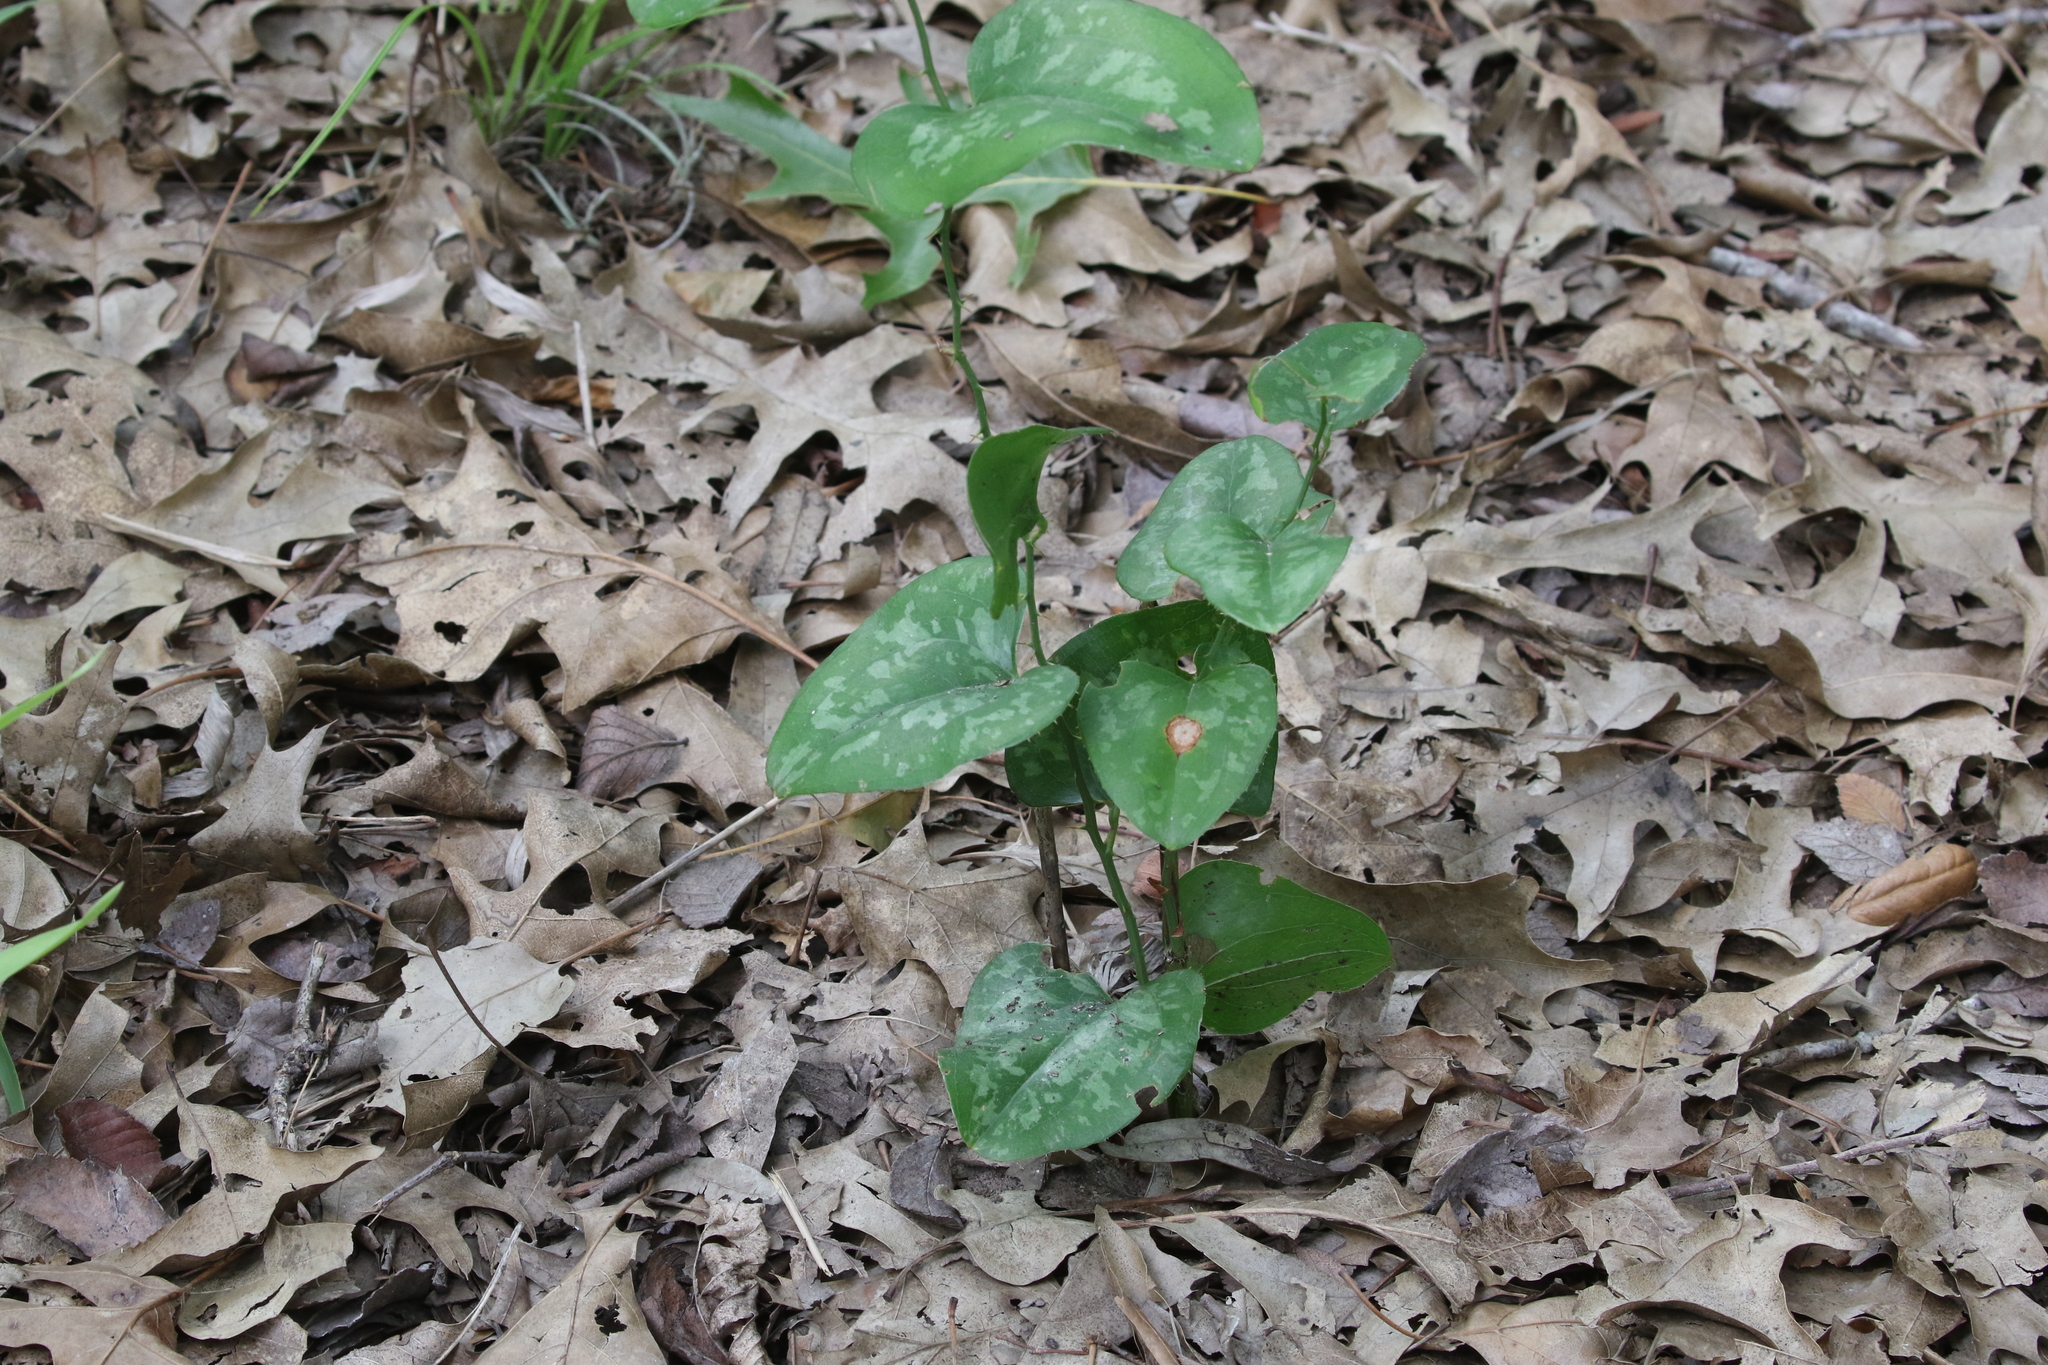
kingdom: Plantae
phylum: Tracheophyta
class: Liliopsida
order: Liliales
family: Smilacaceae
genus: Smilax
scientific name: Smilax bona-nox
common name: Catbrier
